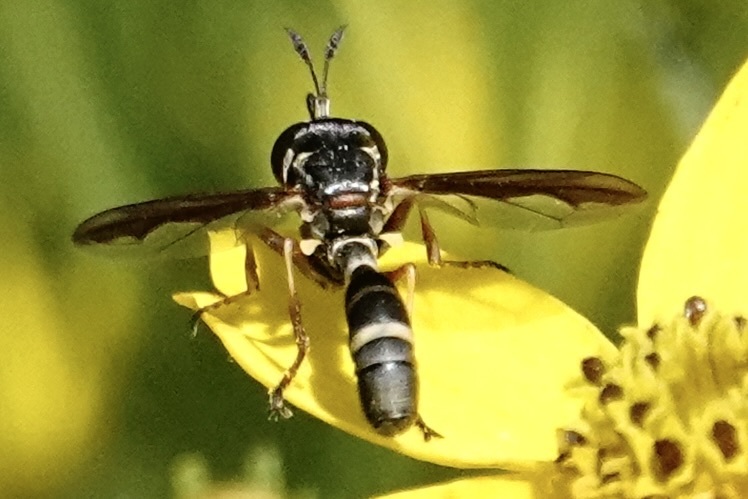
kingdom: Animalia
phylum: Arthropoda
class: Insecta
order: Diptera
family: Conopidae
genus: Physocephala
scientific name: Physocephala marginata
